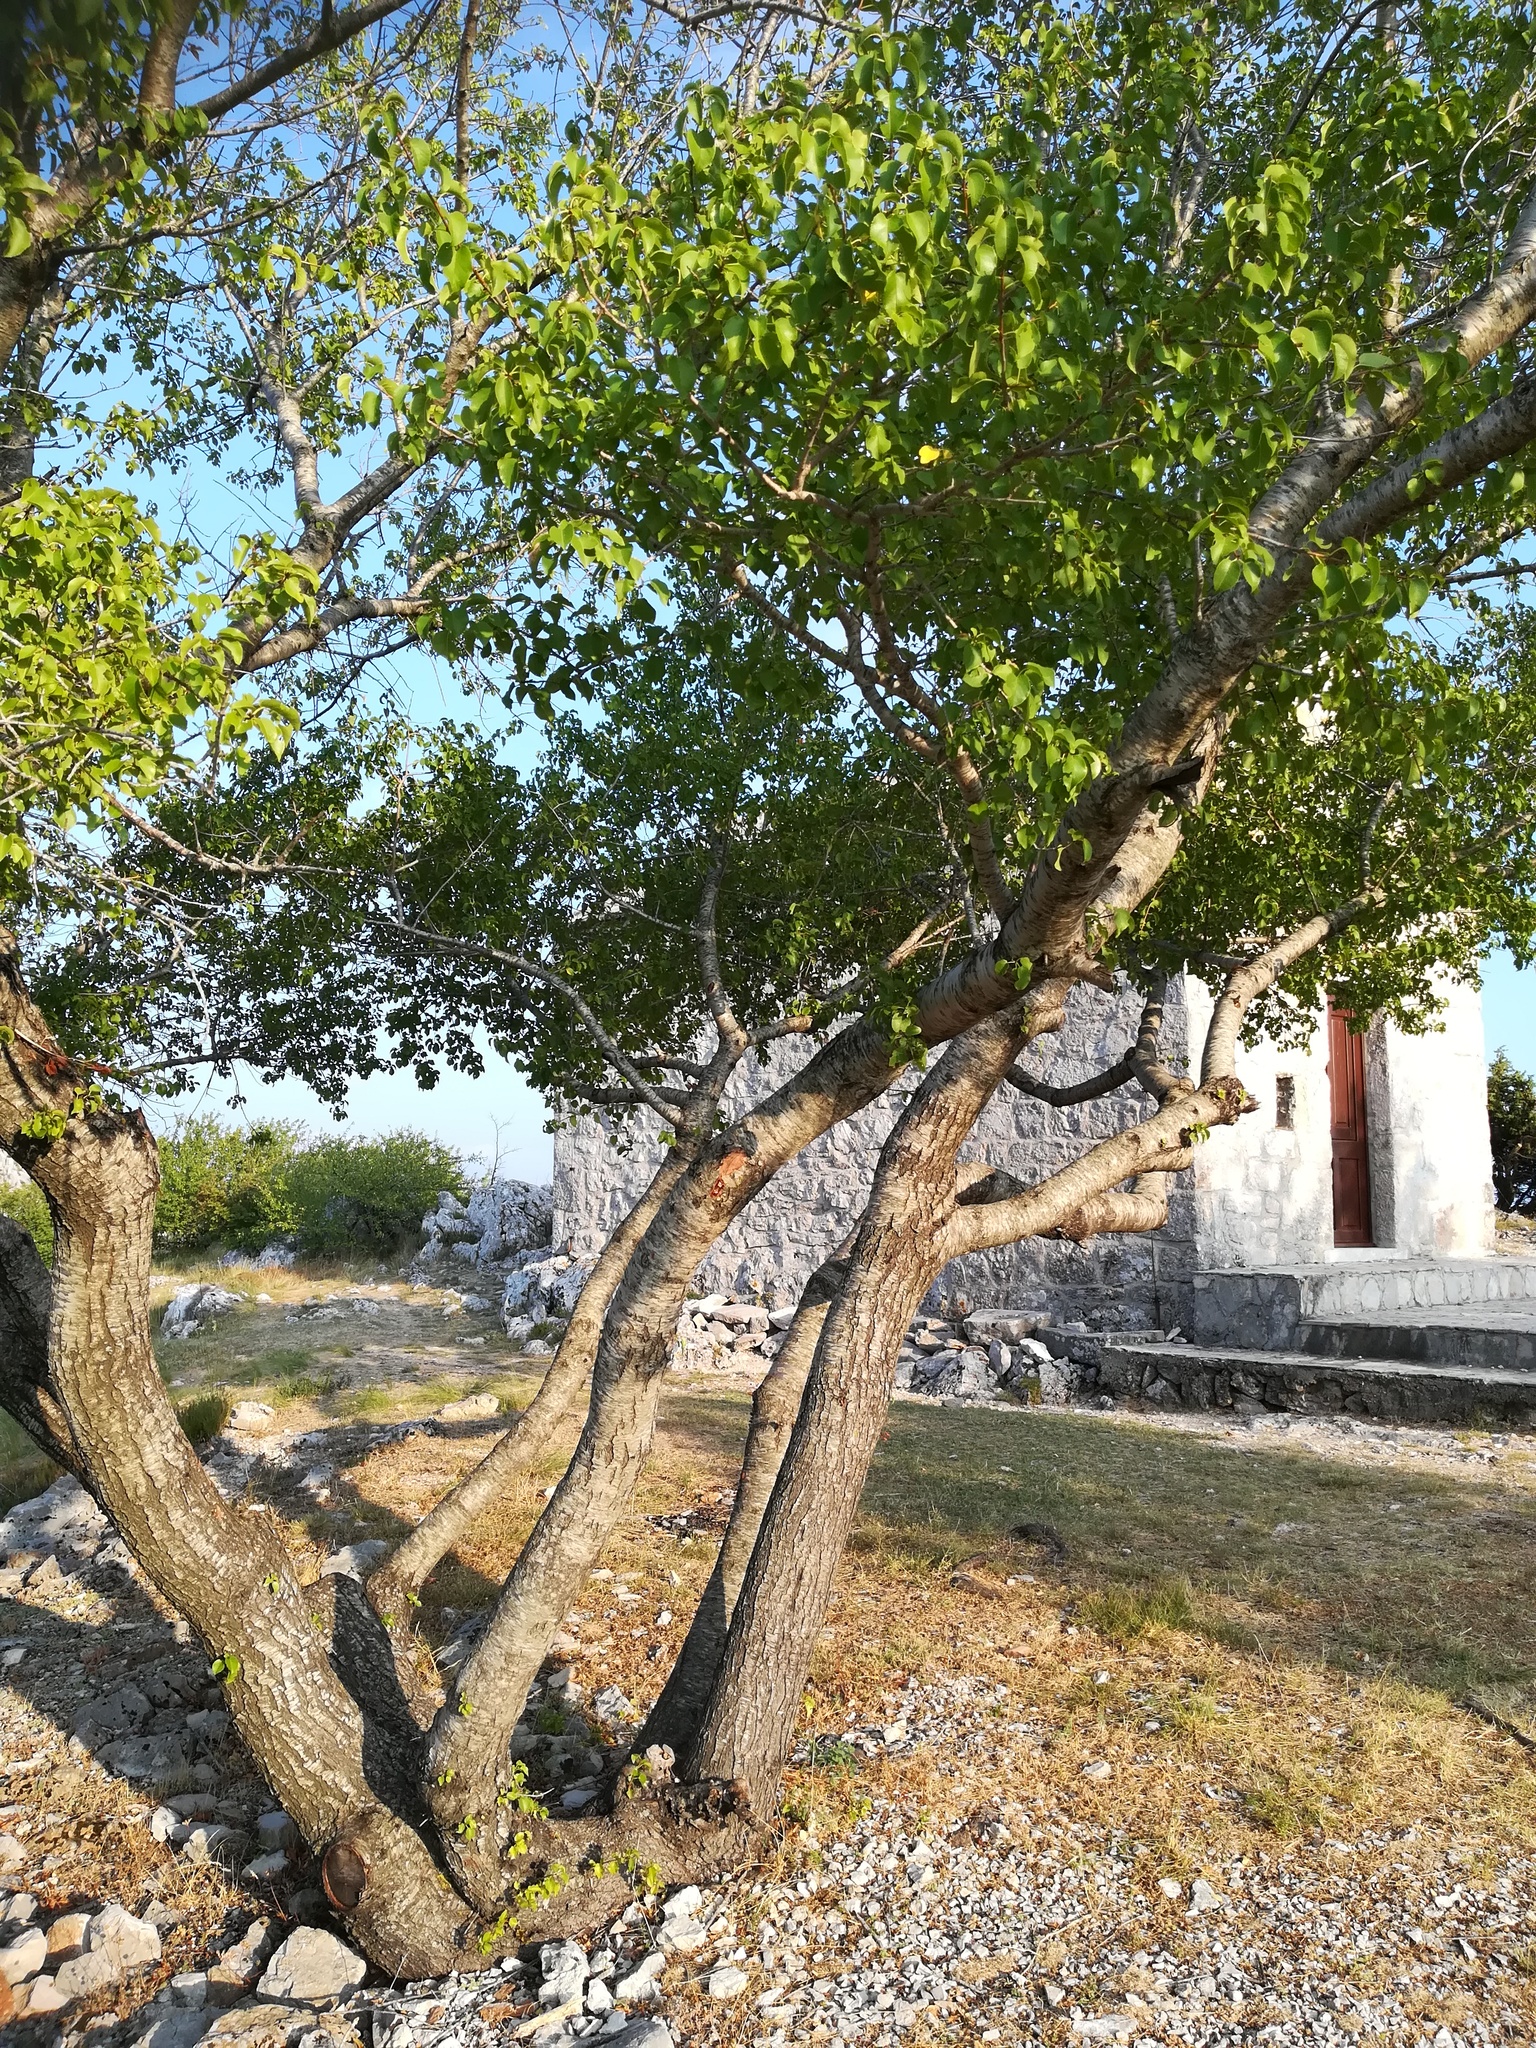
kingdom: Plantae
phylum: Tracheophyta
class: Magnoliopsida
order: Rosales
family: Rosaceae
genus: Prunus
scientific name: Prunus mahaleb
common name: Mahaleb cherry
